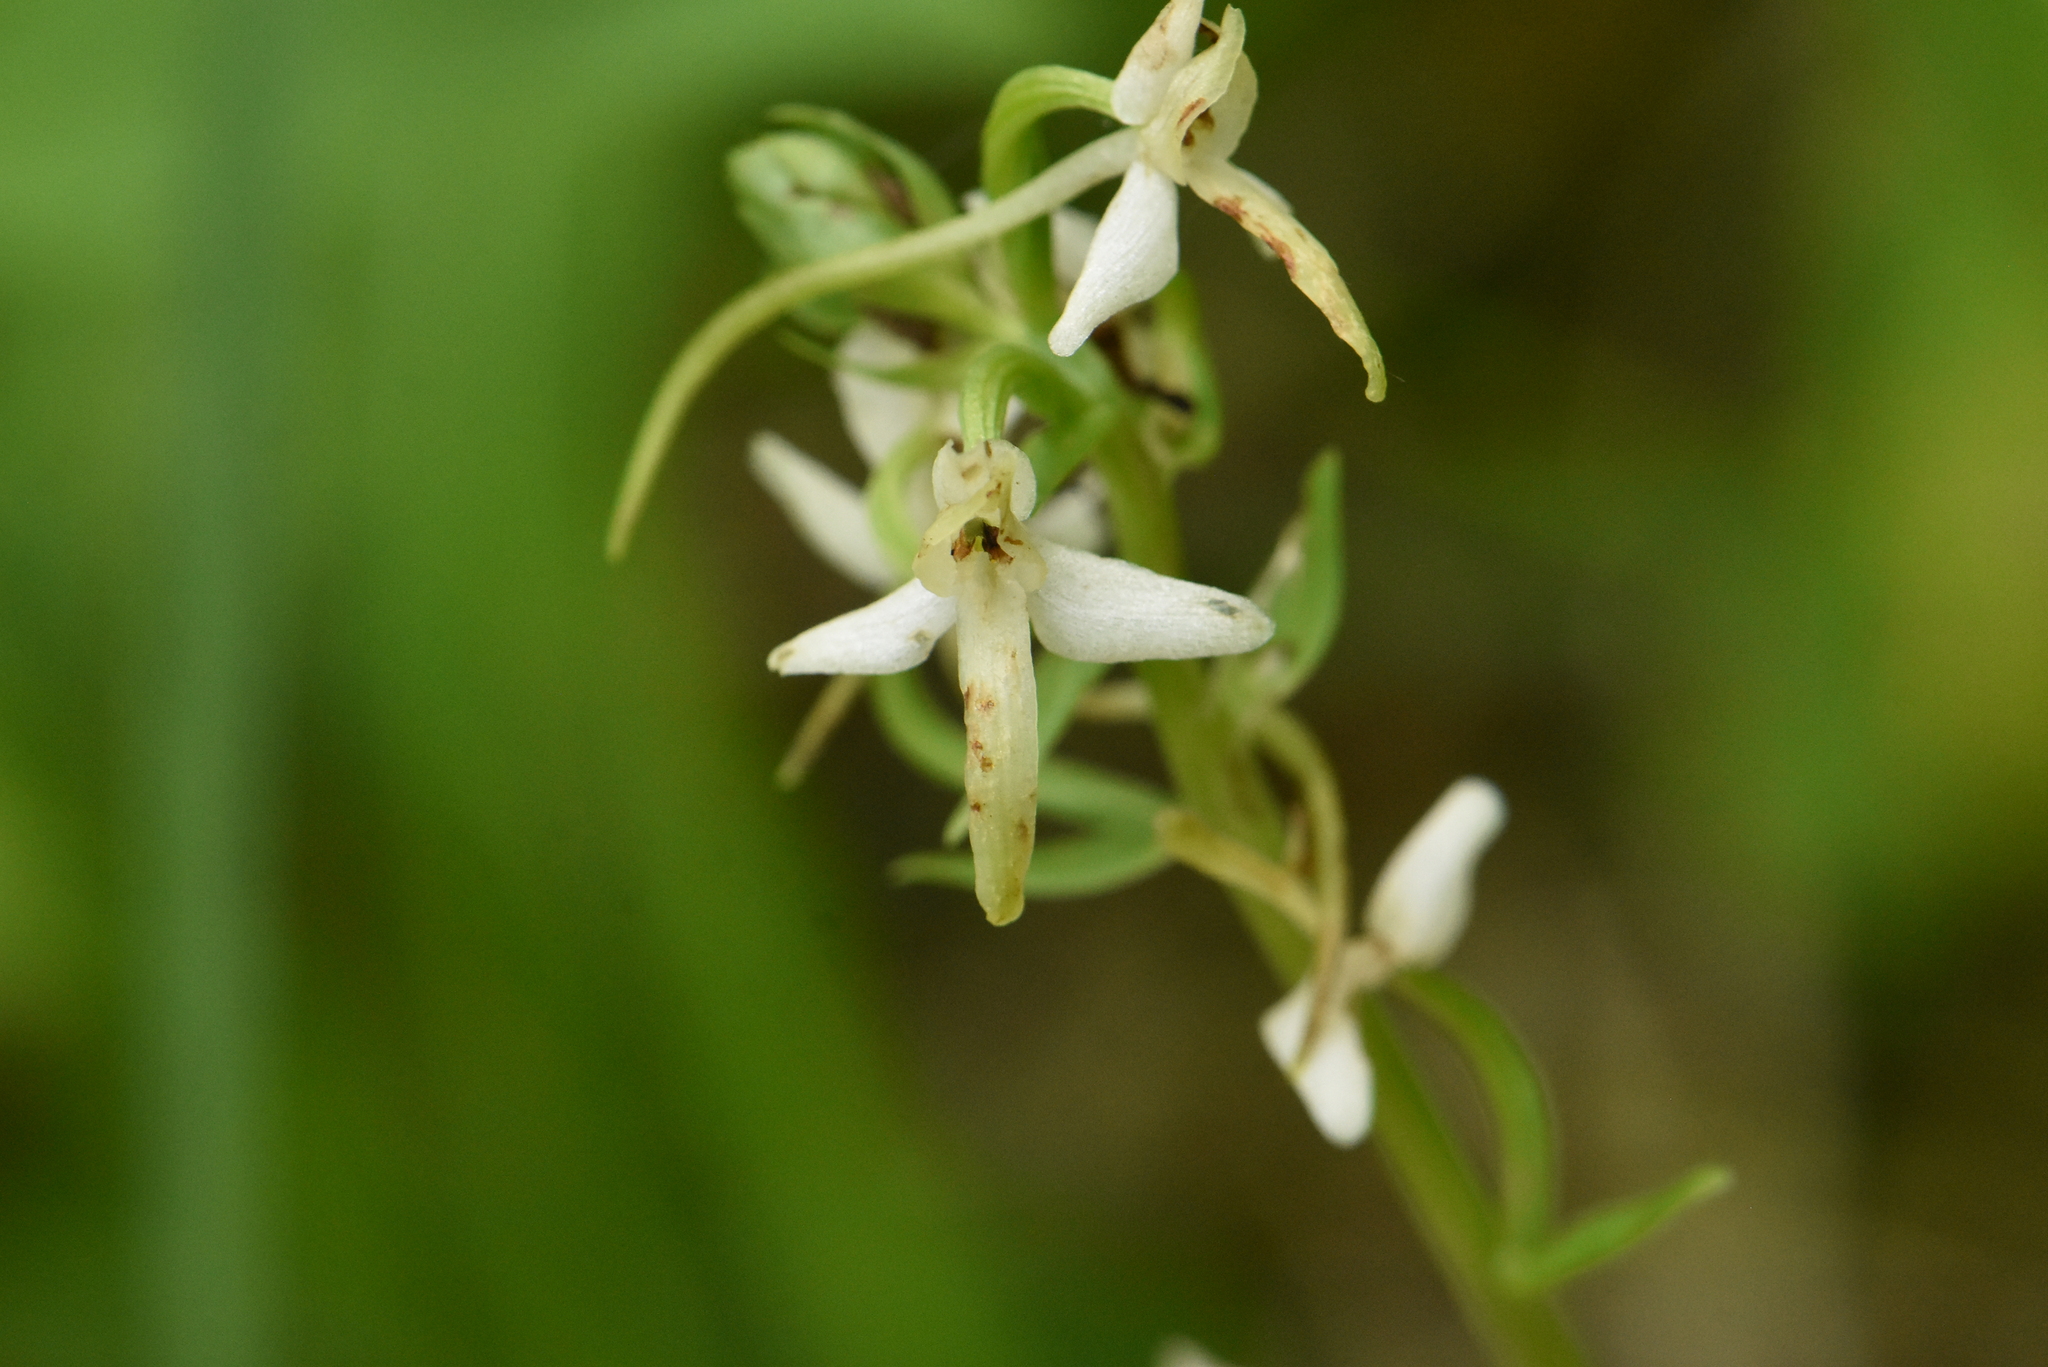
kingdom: Plantae
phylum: Tracheophyta
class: Liliopsida
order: Asparagales
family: Orchidaceae
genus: Platanthera
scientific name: Platanthera bifolia
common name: Lesser butterfly-orchid
